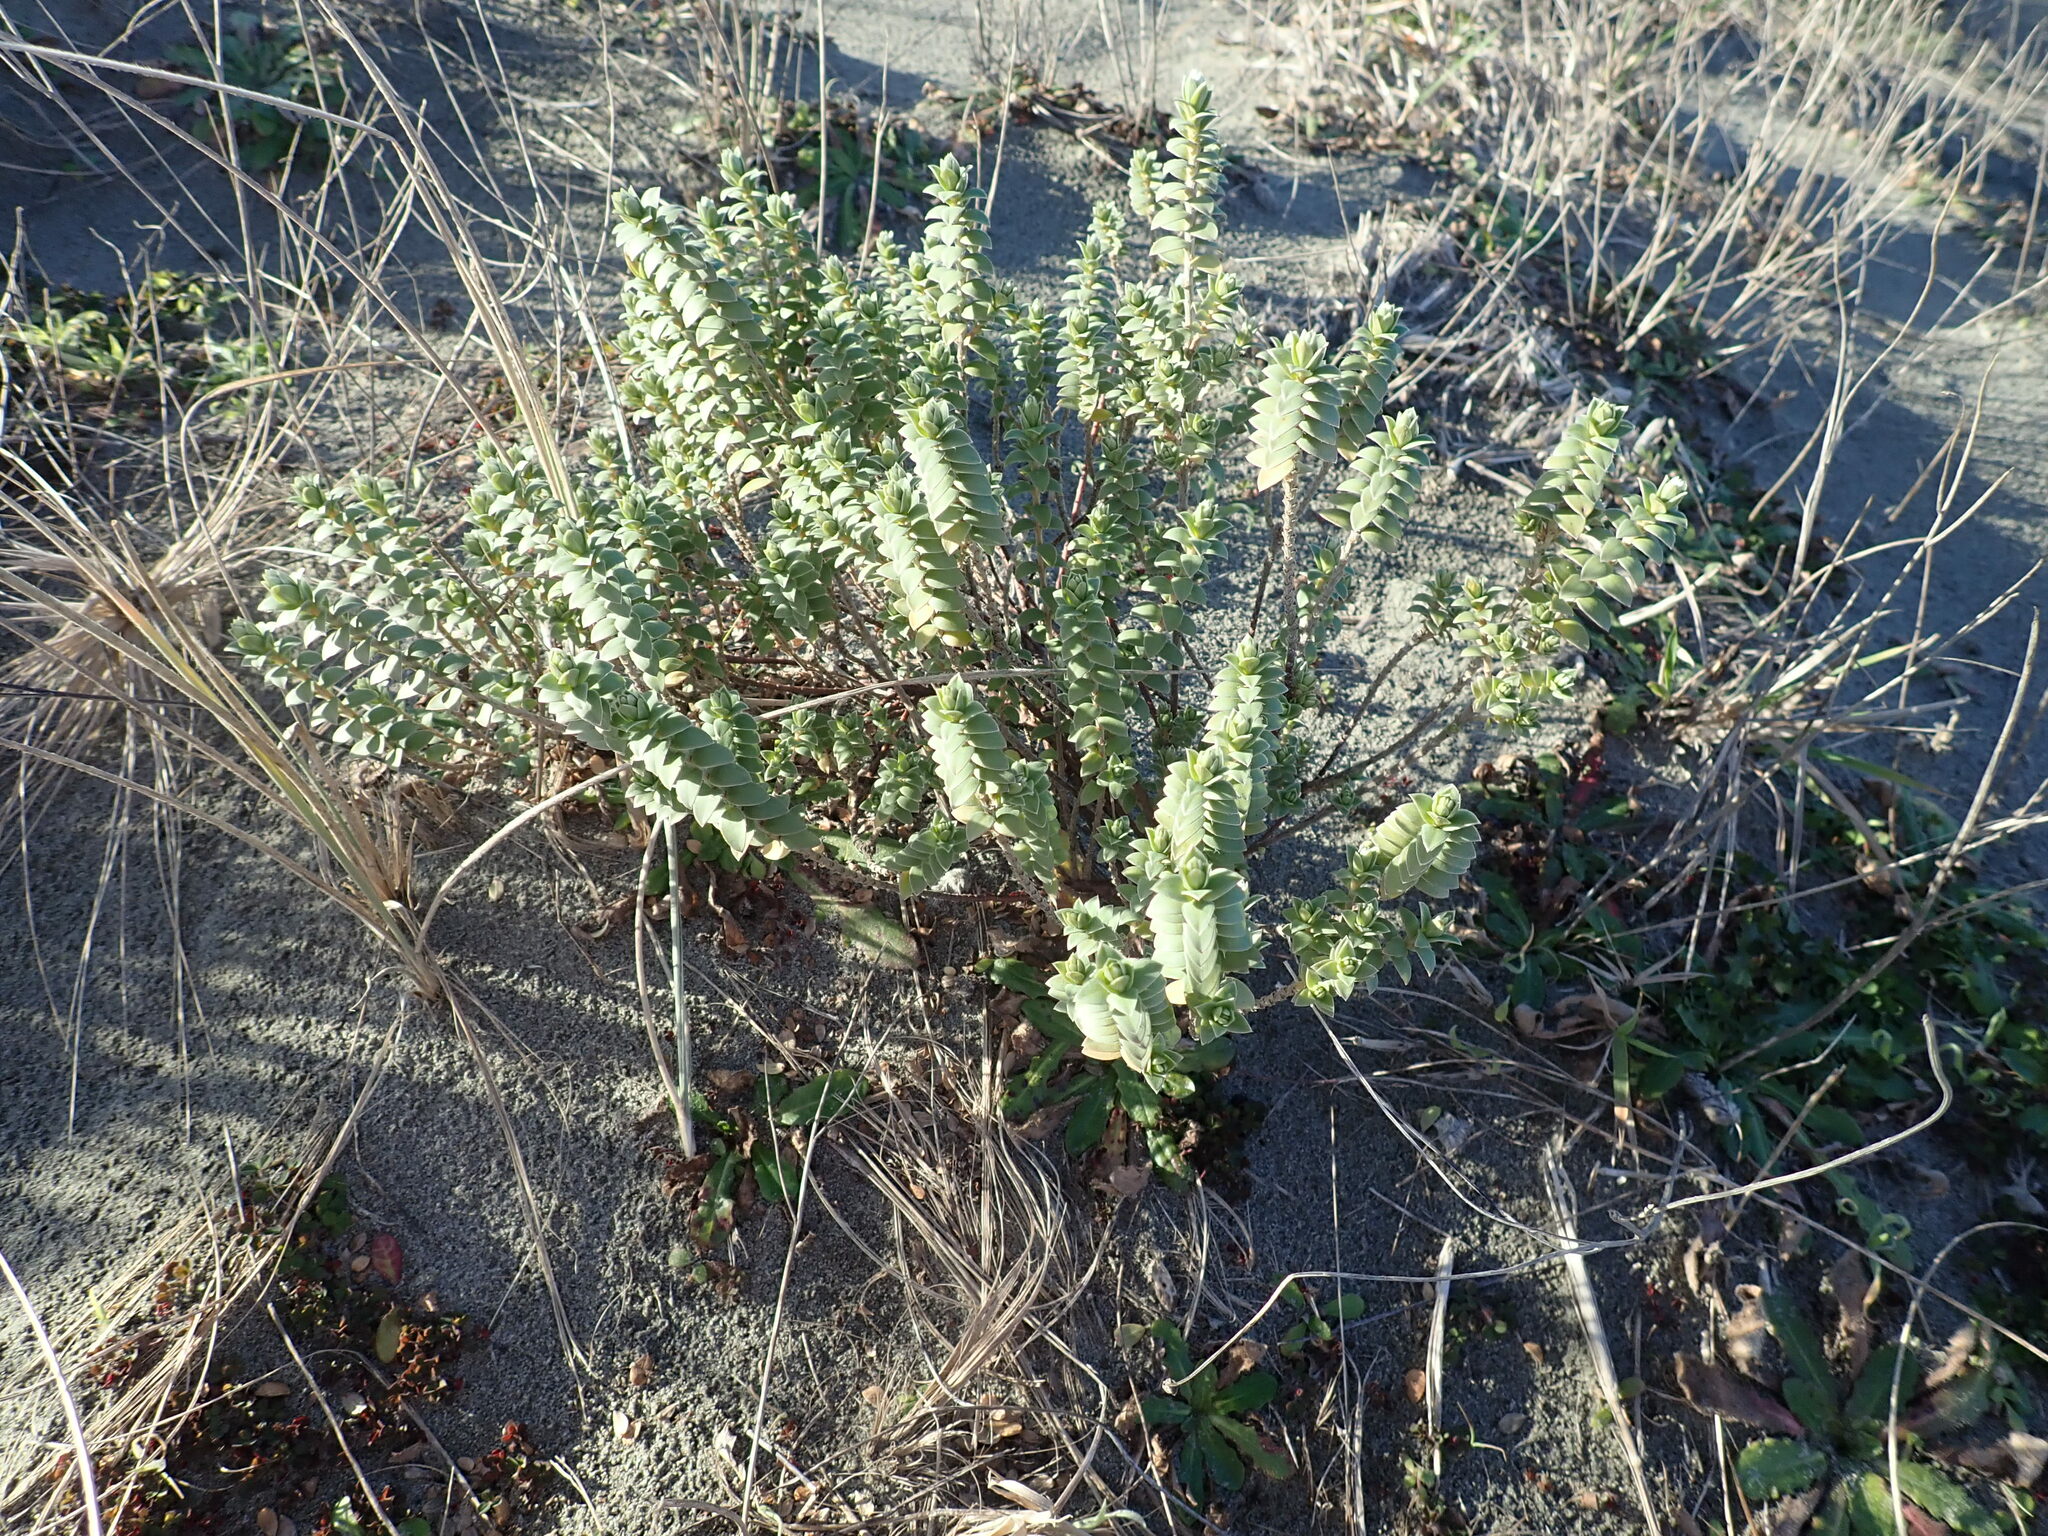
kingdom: Plantae
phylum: Tracheophyta
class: Magnoliopsida
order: Malvales
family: Thymelaeaceae
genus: Pimelea
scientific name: Pimelea villosa
